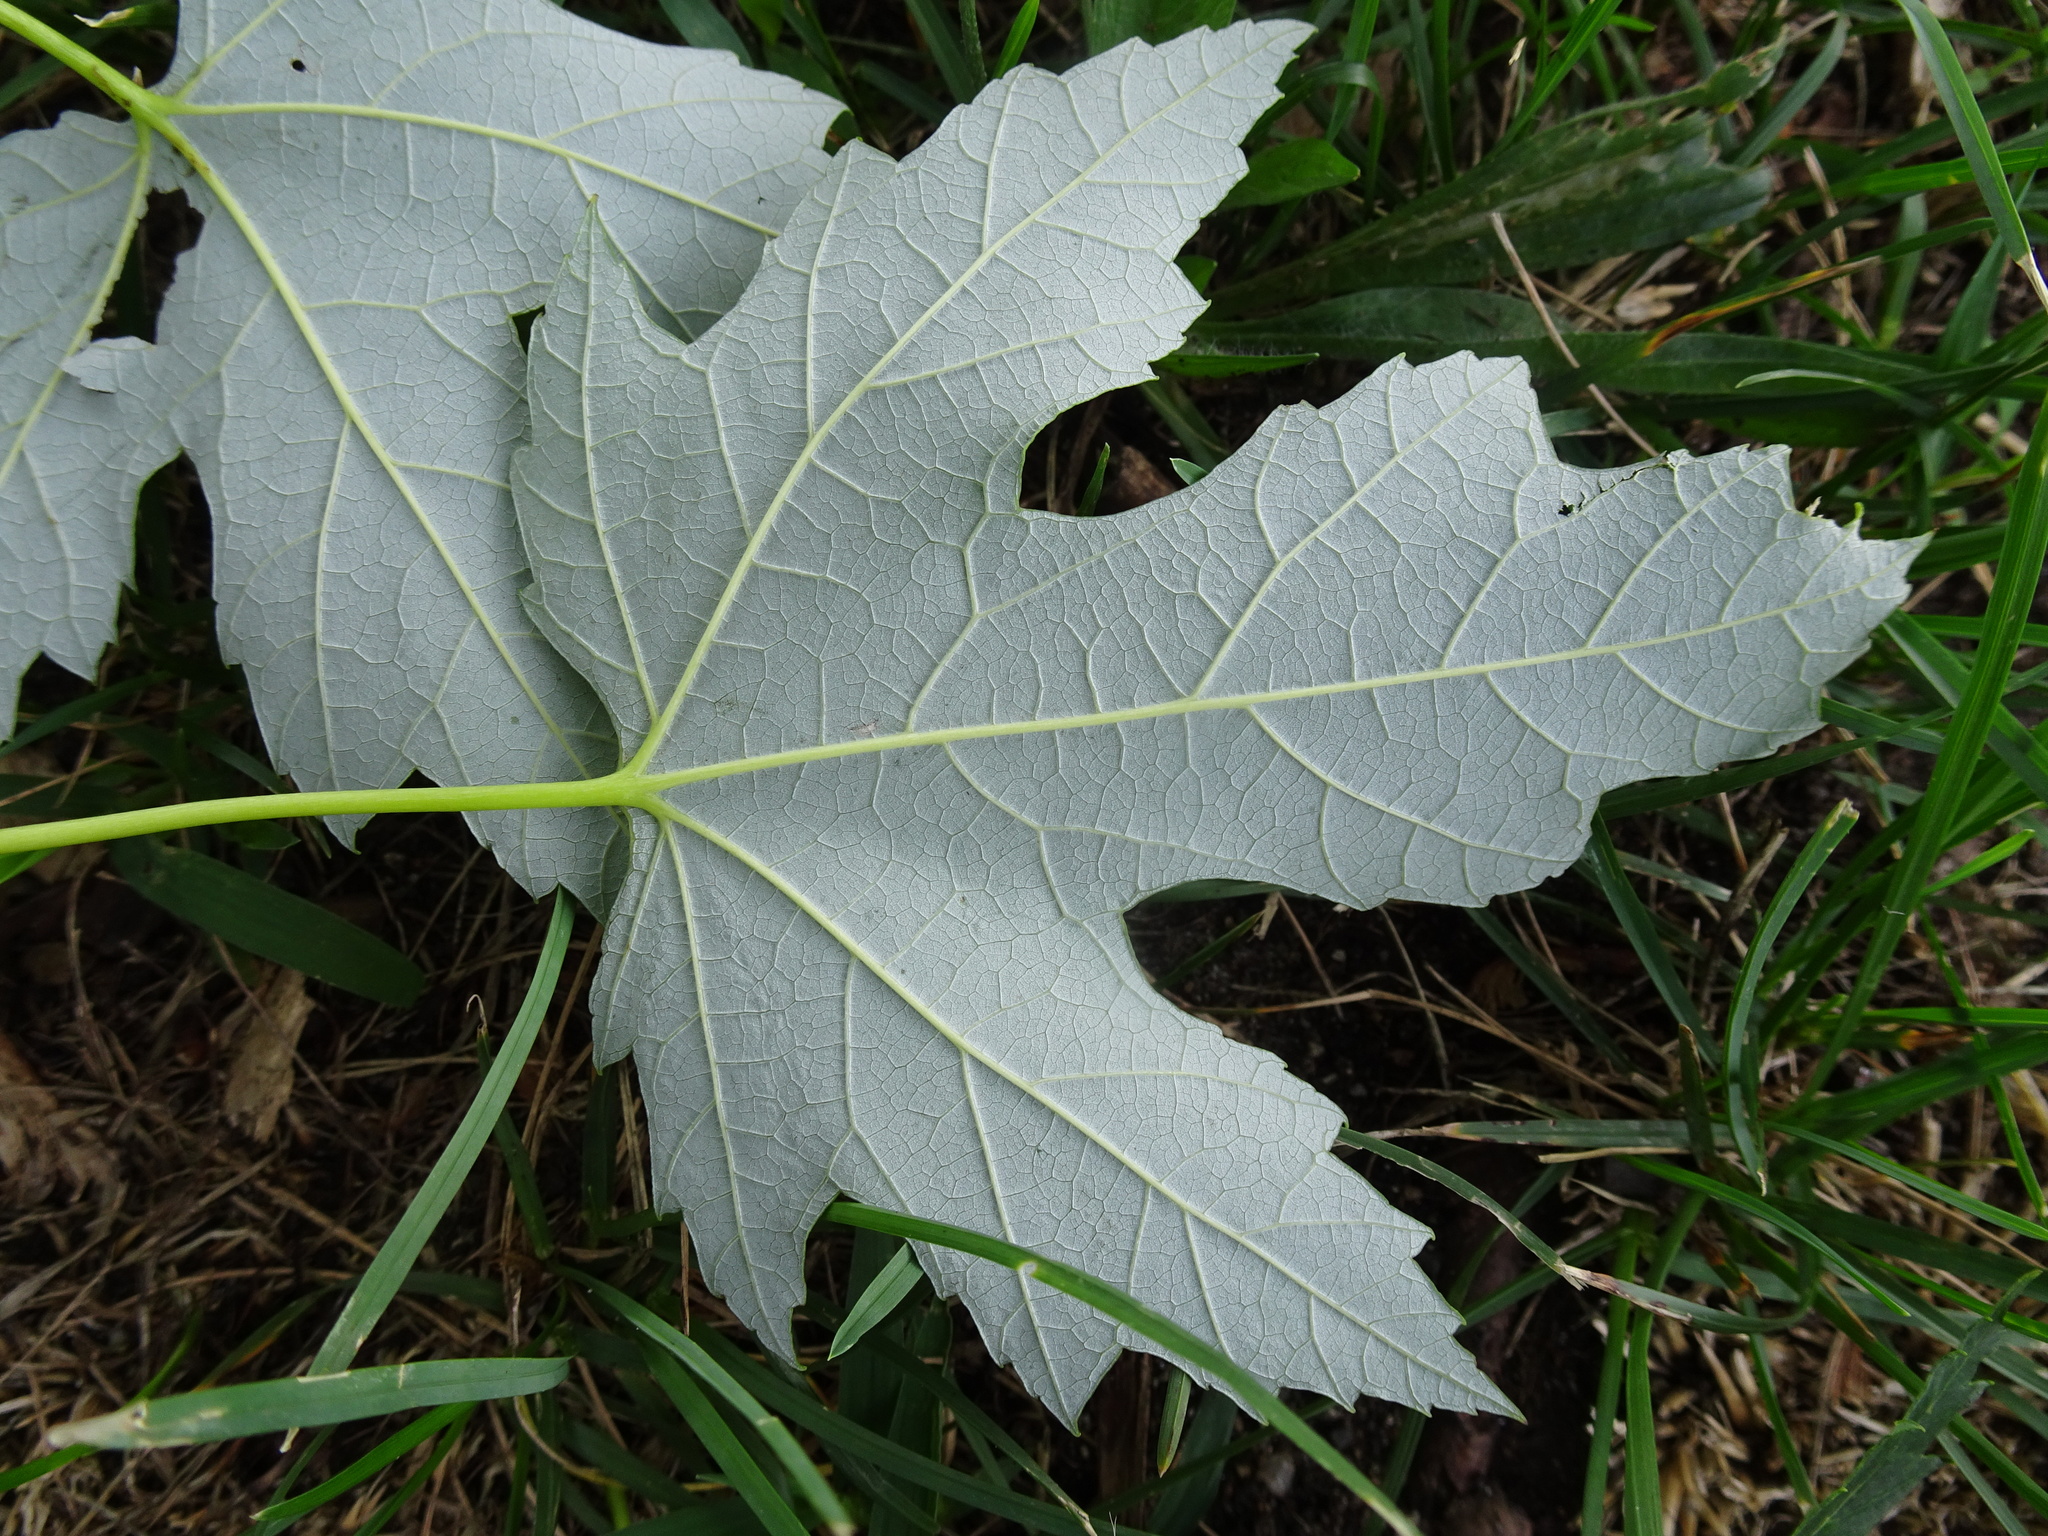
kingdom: Plantae
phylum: Tracheophyta
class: Magnoliopsida
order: Sapindales
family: Sapindaceae
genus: Acer
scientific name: Acer saccharinum
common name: Silver maple
